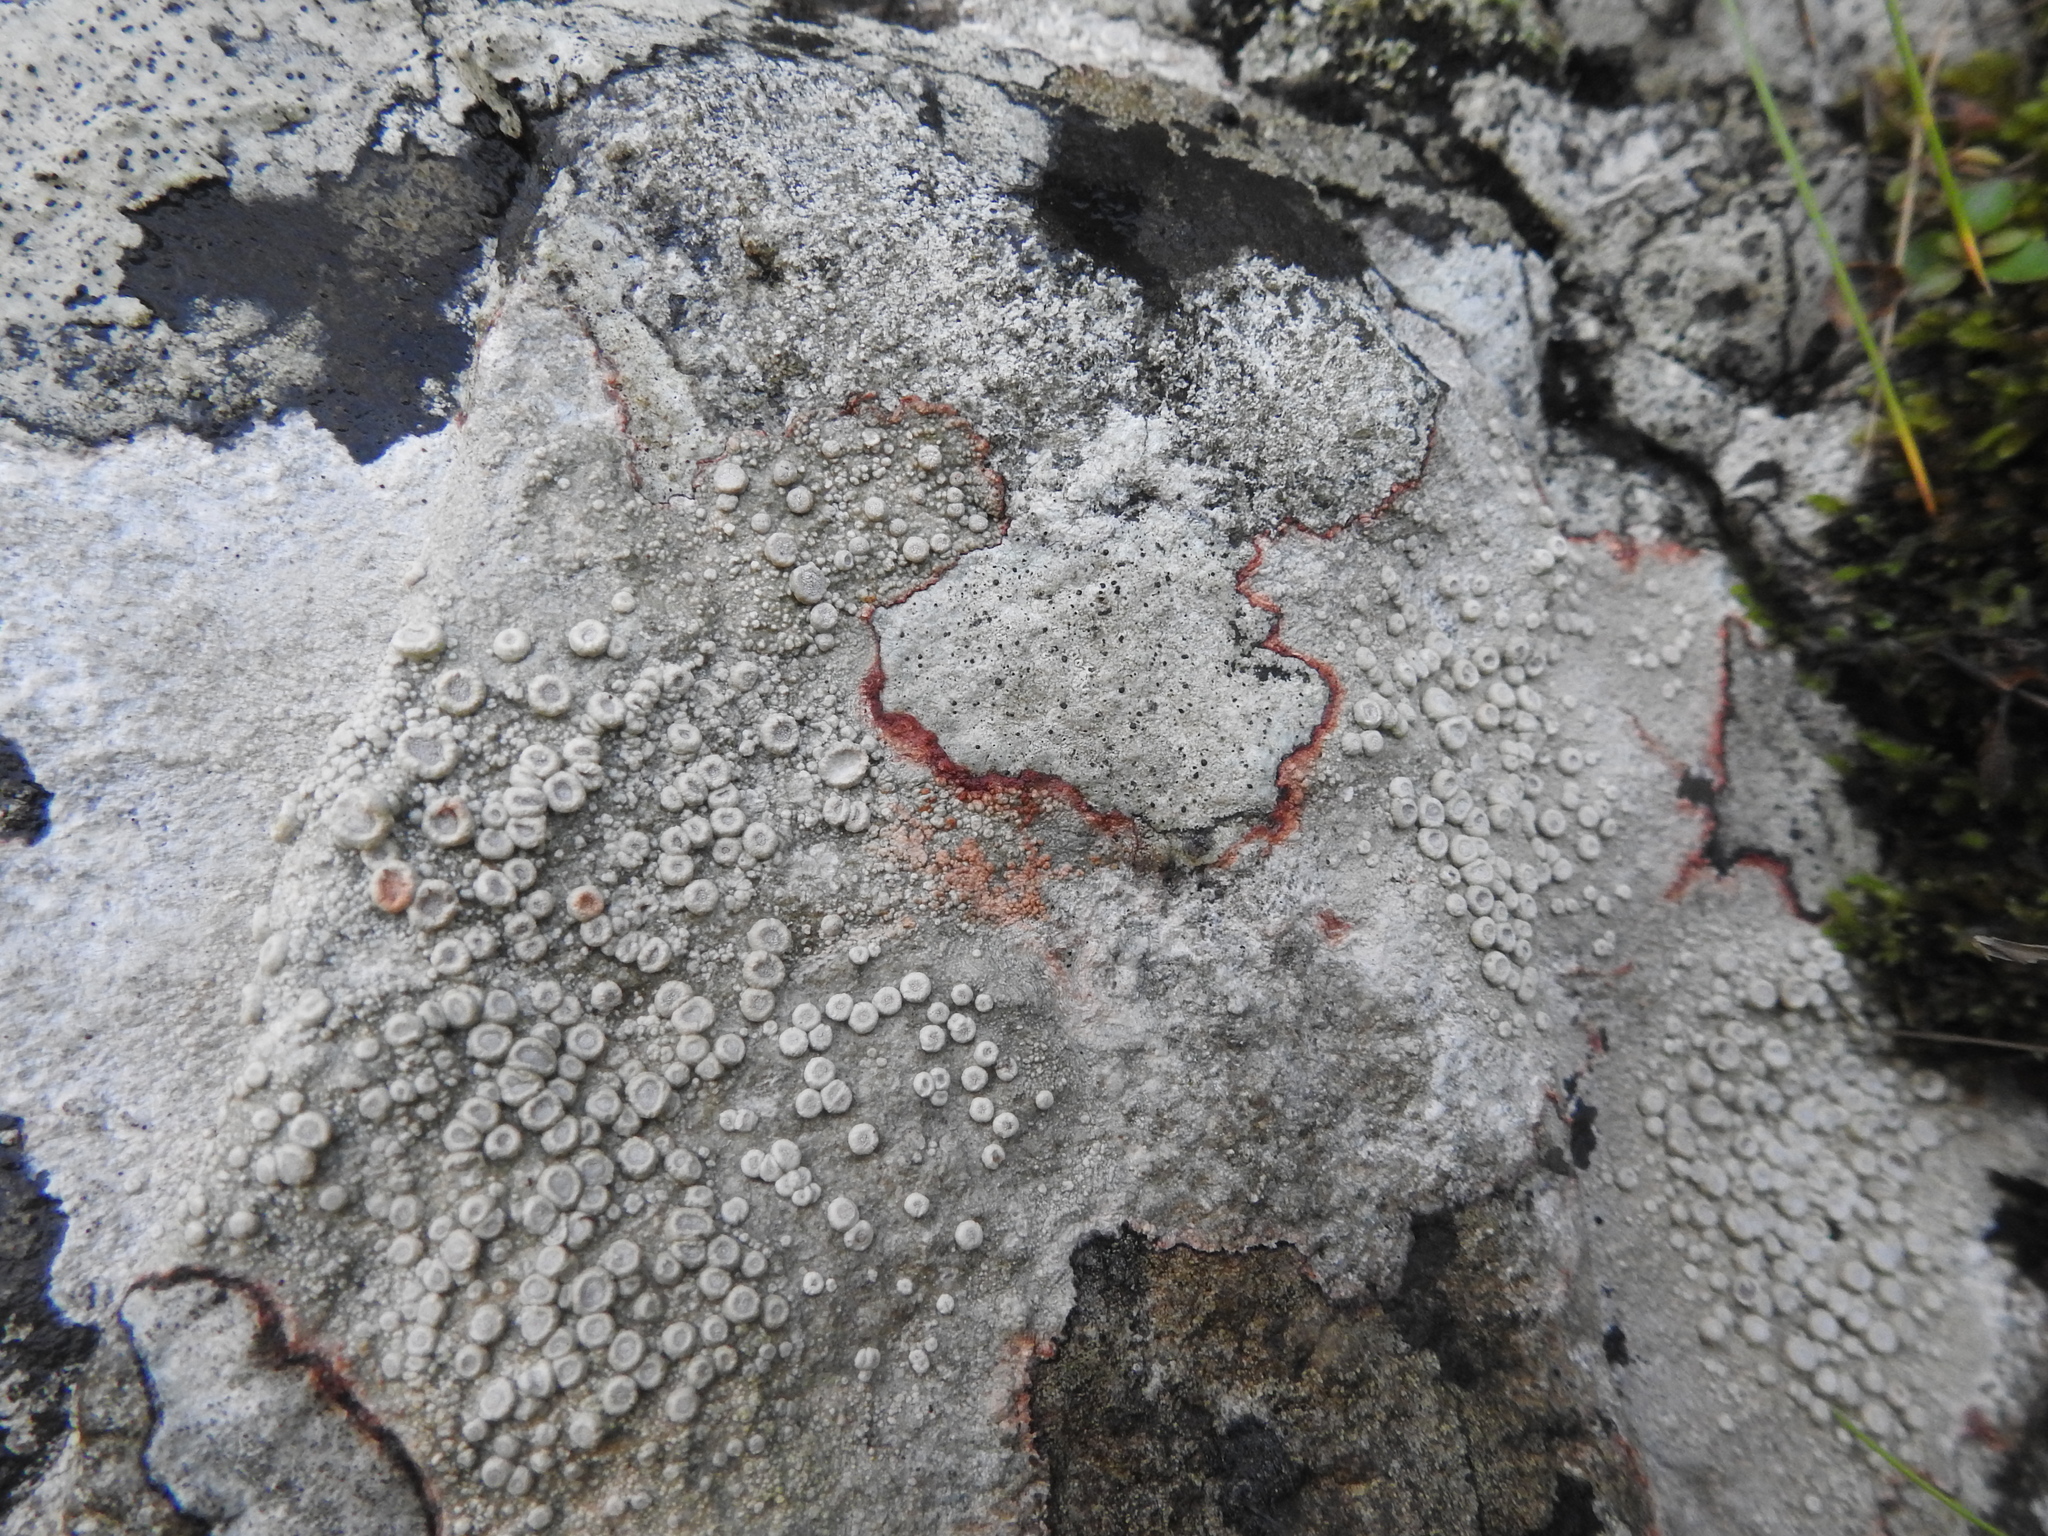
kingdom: Fungi
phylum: Ascomycota
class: Lecanoromycetes
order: Pertusariales
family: Ochrolechiaceae
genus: Ochrolechia
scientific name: Ochrolechia parella
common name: Crab's eye lichen
